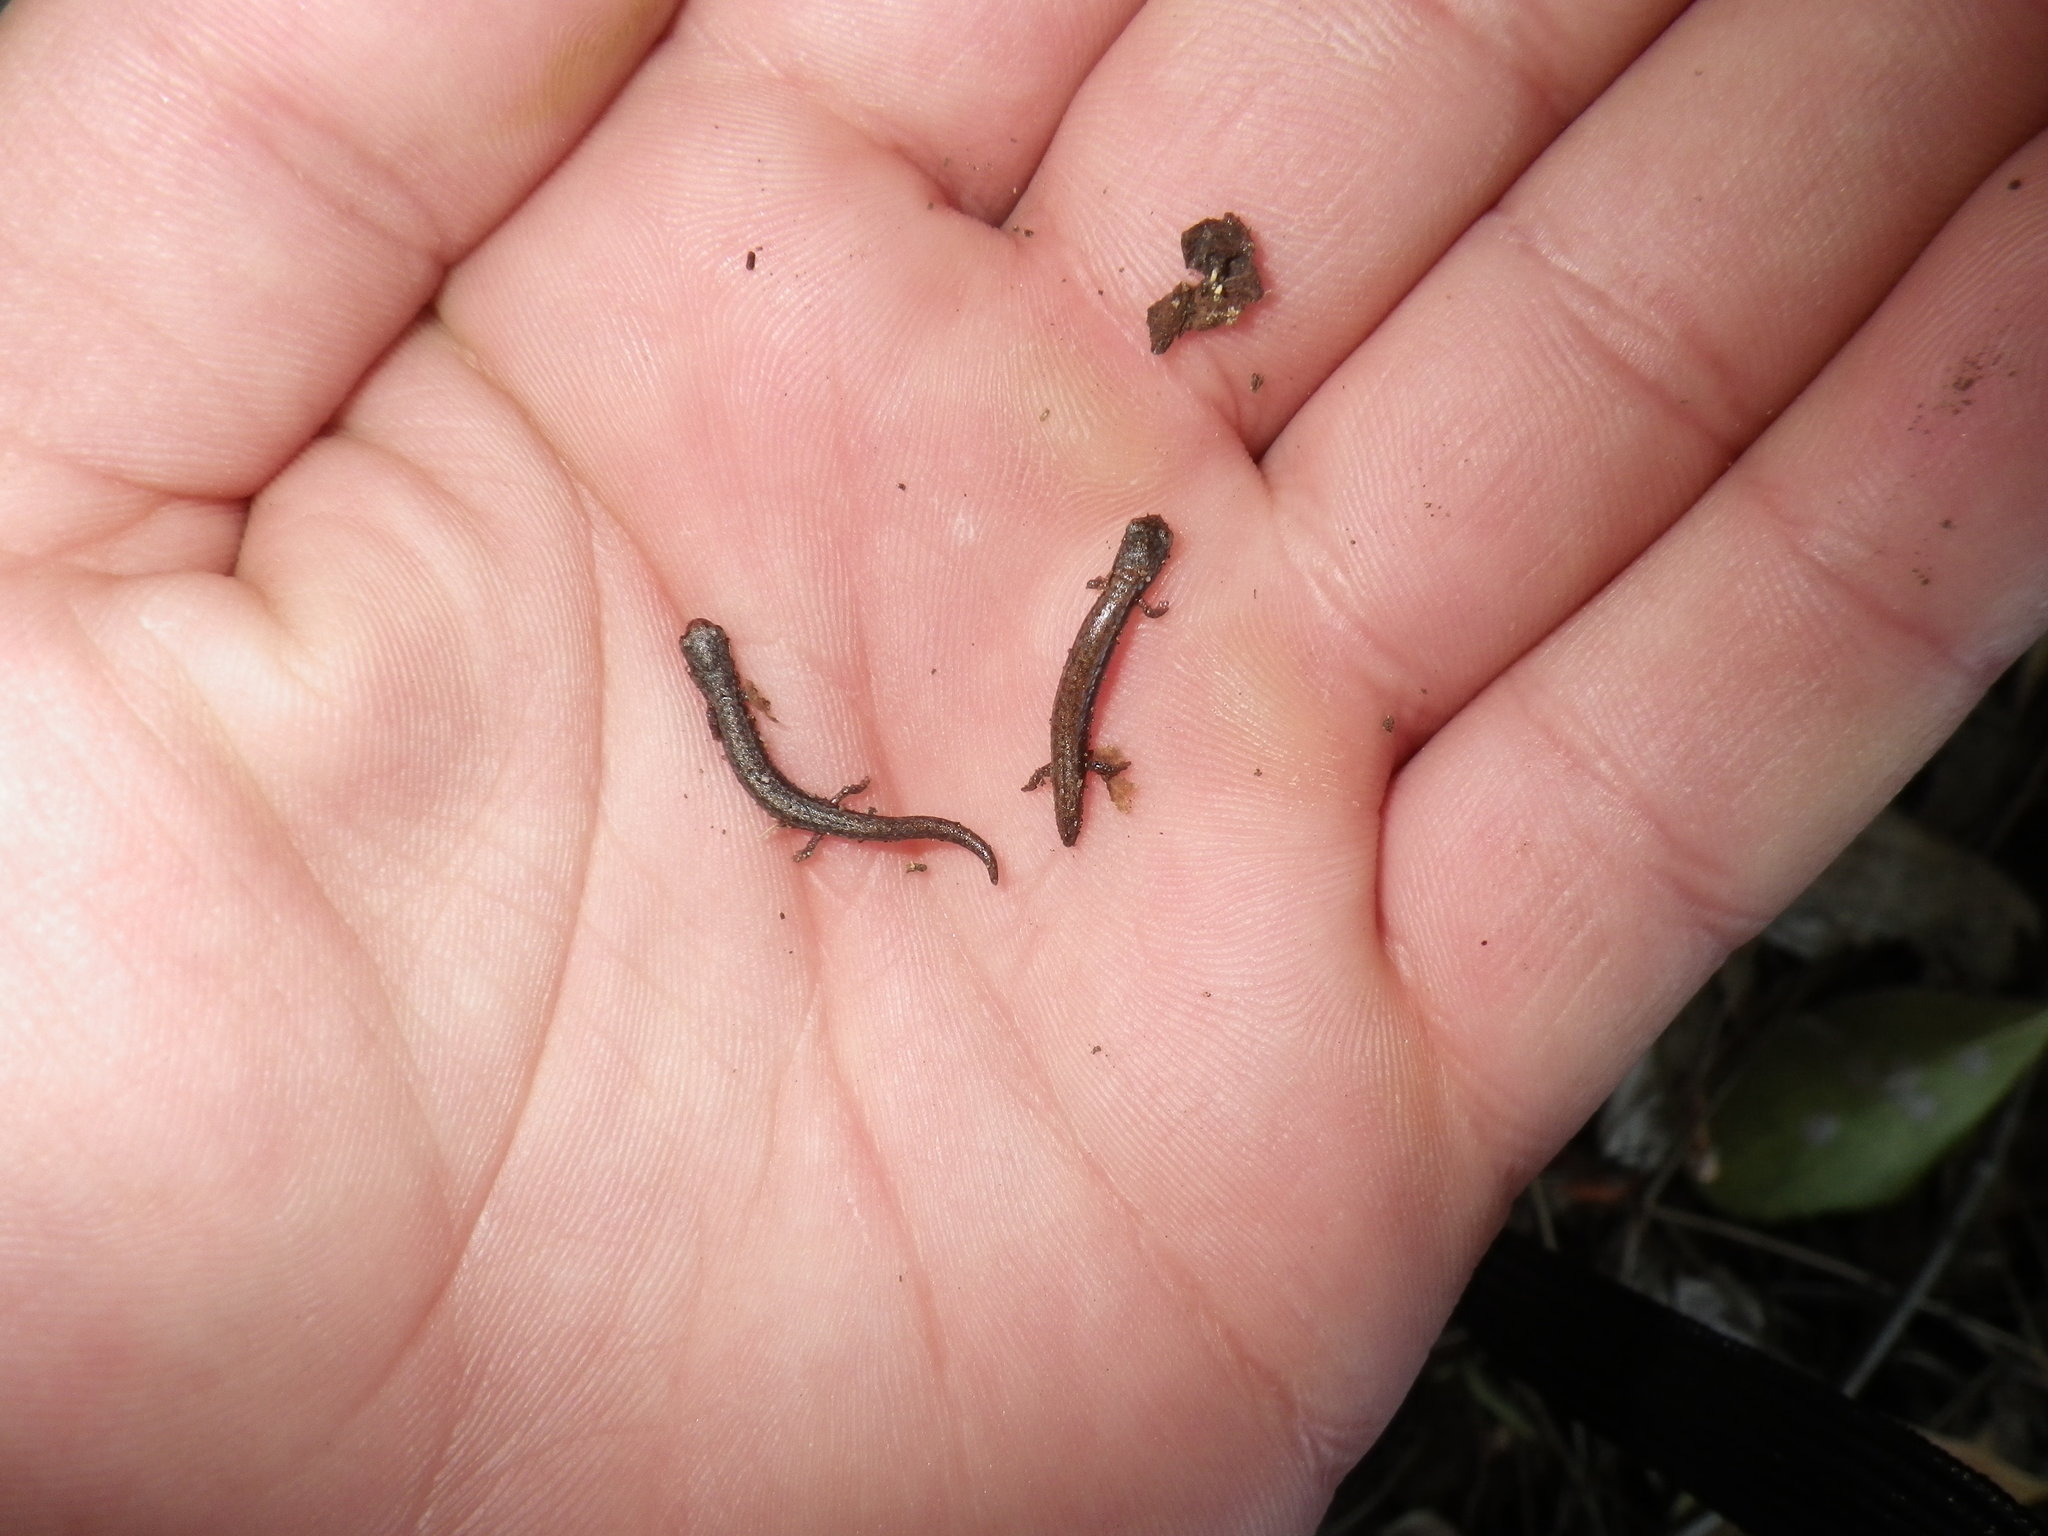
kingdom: Animalia
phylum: Chordata
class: Amphibia
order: Caudata
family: Plethodontidae
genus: Batrachoseps
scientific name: Batrachoseps attenuatus
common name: California slender salamander
